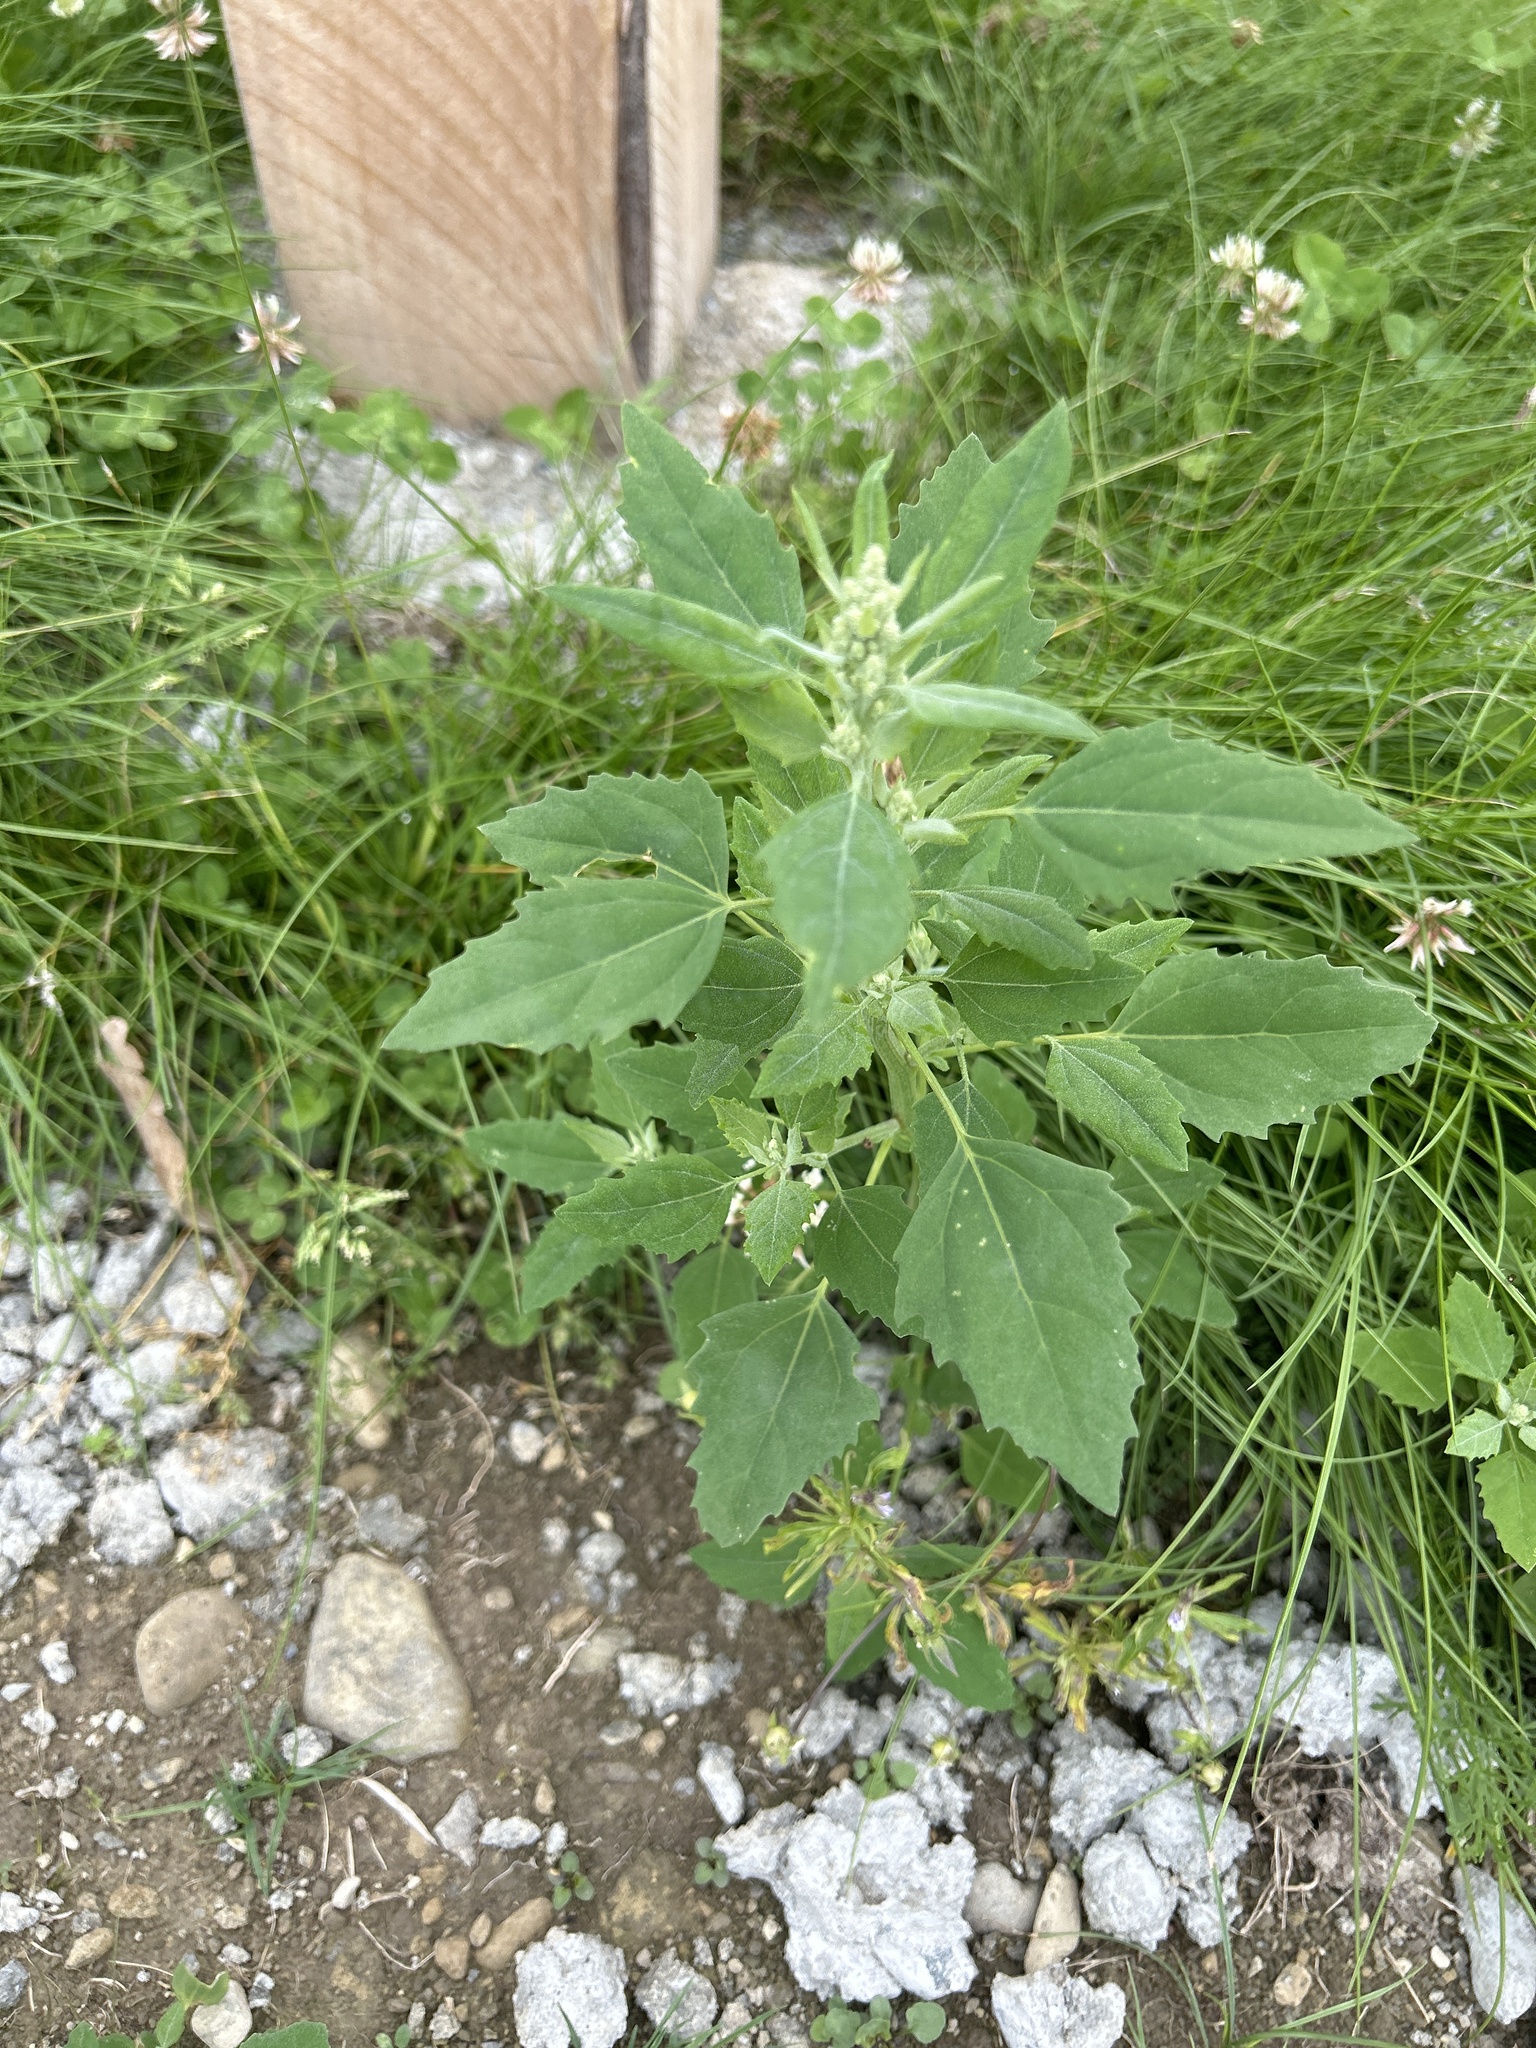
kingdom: Plantae
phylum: Tracheophyta
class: Magnoliopsida
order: Caryophyllales
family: Amaranthaceae
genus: Chenopodium
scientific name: Chenopodium album
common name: Fat-hen
